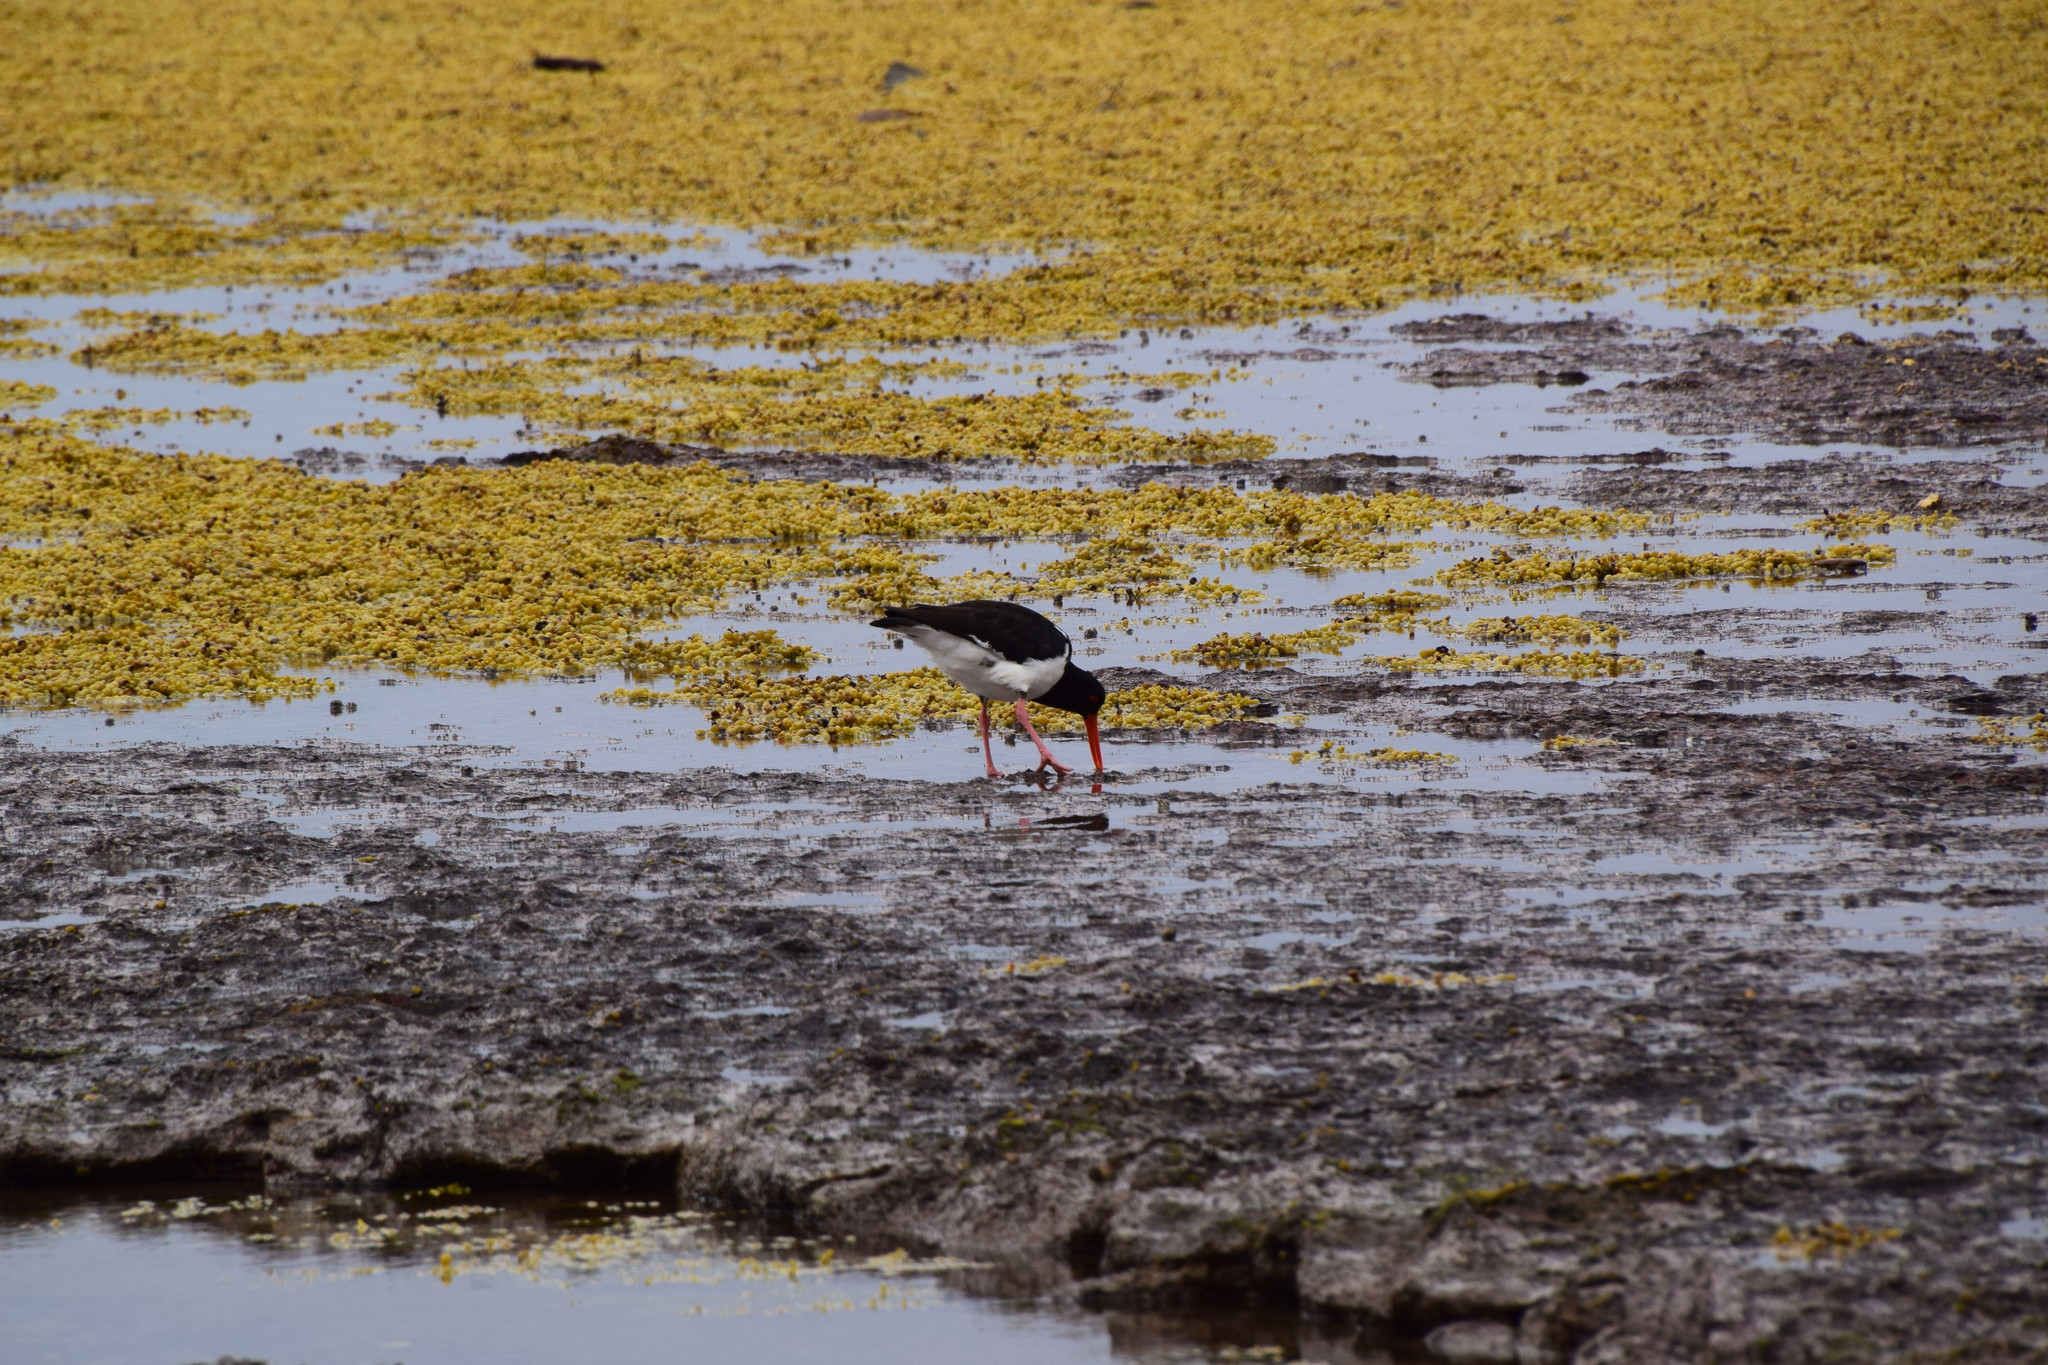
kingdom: Animalia
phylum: Chordata
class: Aves
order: Charadriiformes
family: Haematopodidae
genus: Haematopus
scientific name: Haematopus longirostris
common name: Pied oystercatcher
